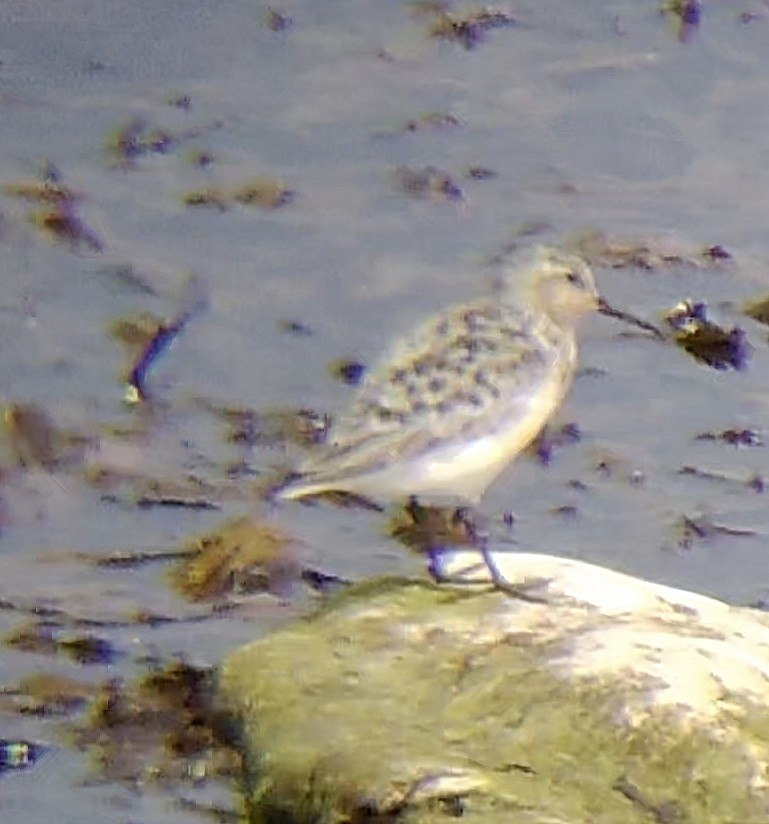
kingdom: Animalia
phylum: Chordata
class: Aves
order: Charadriiformes
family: Scolopacidae
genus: Calidris
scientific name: Calidris alba
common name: Sanderling
